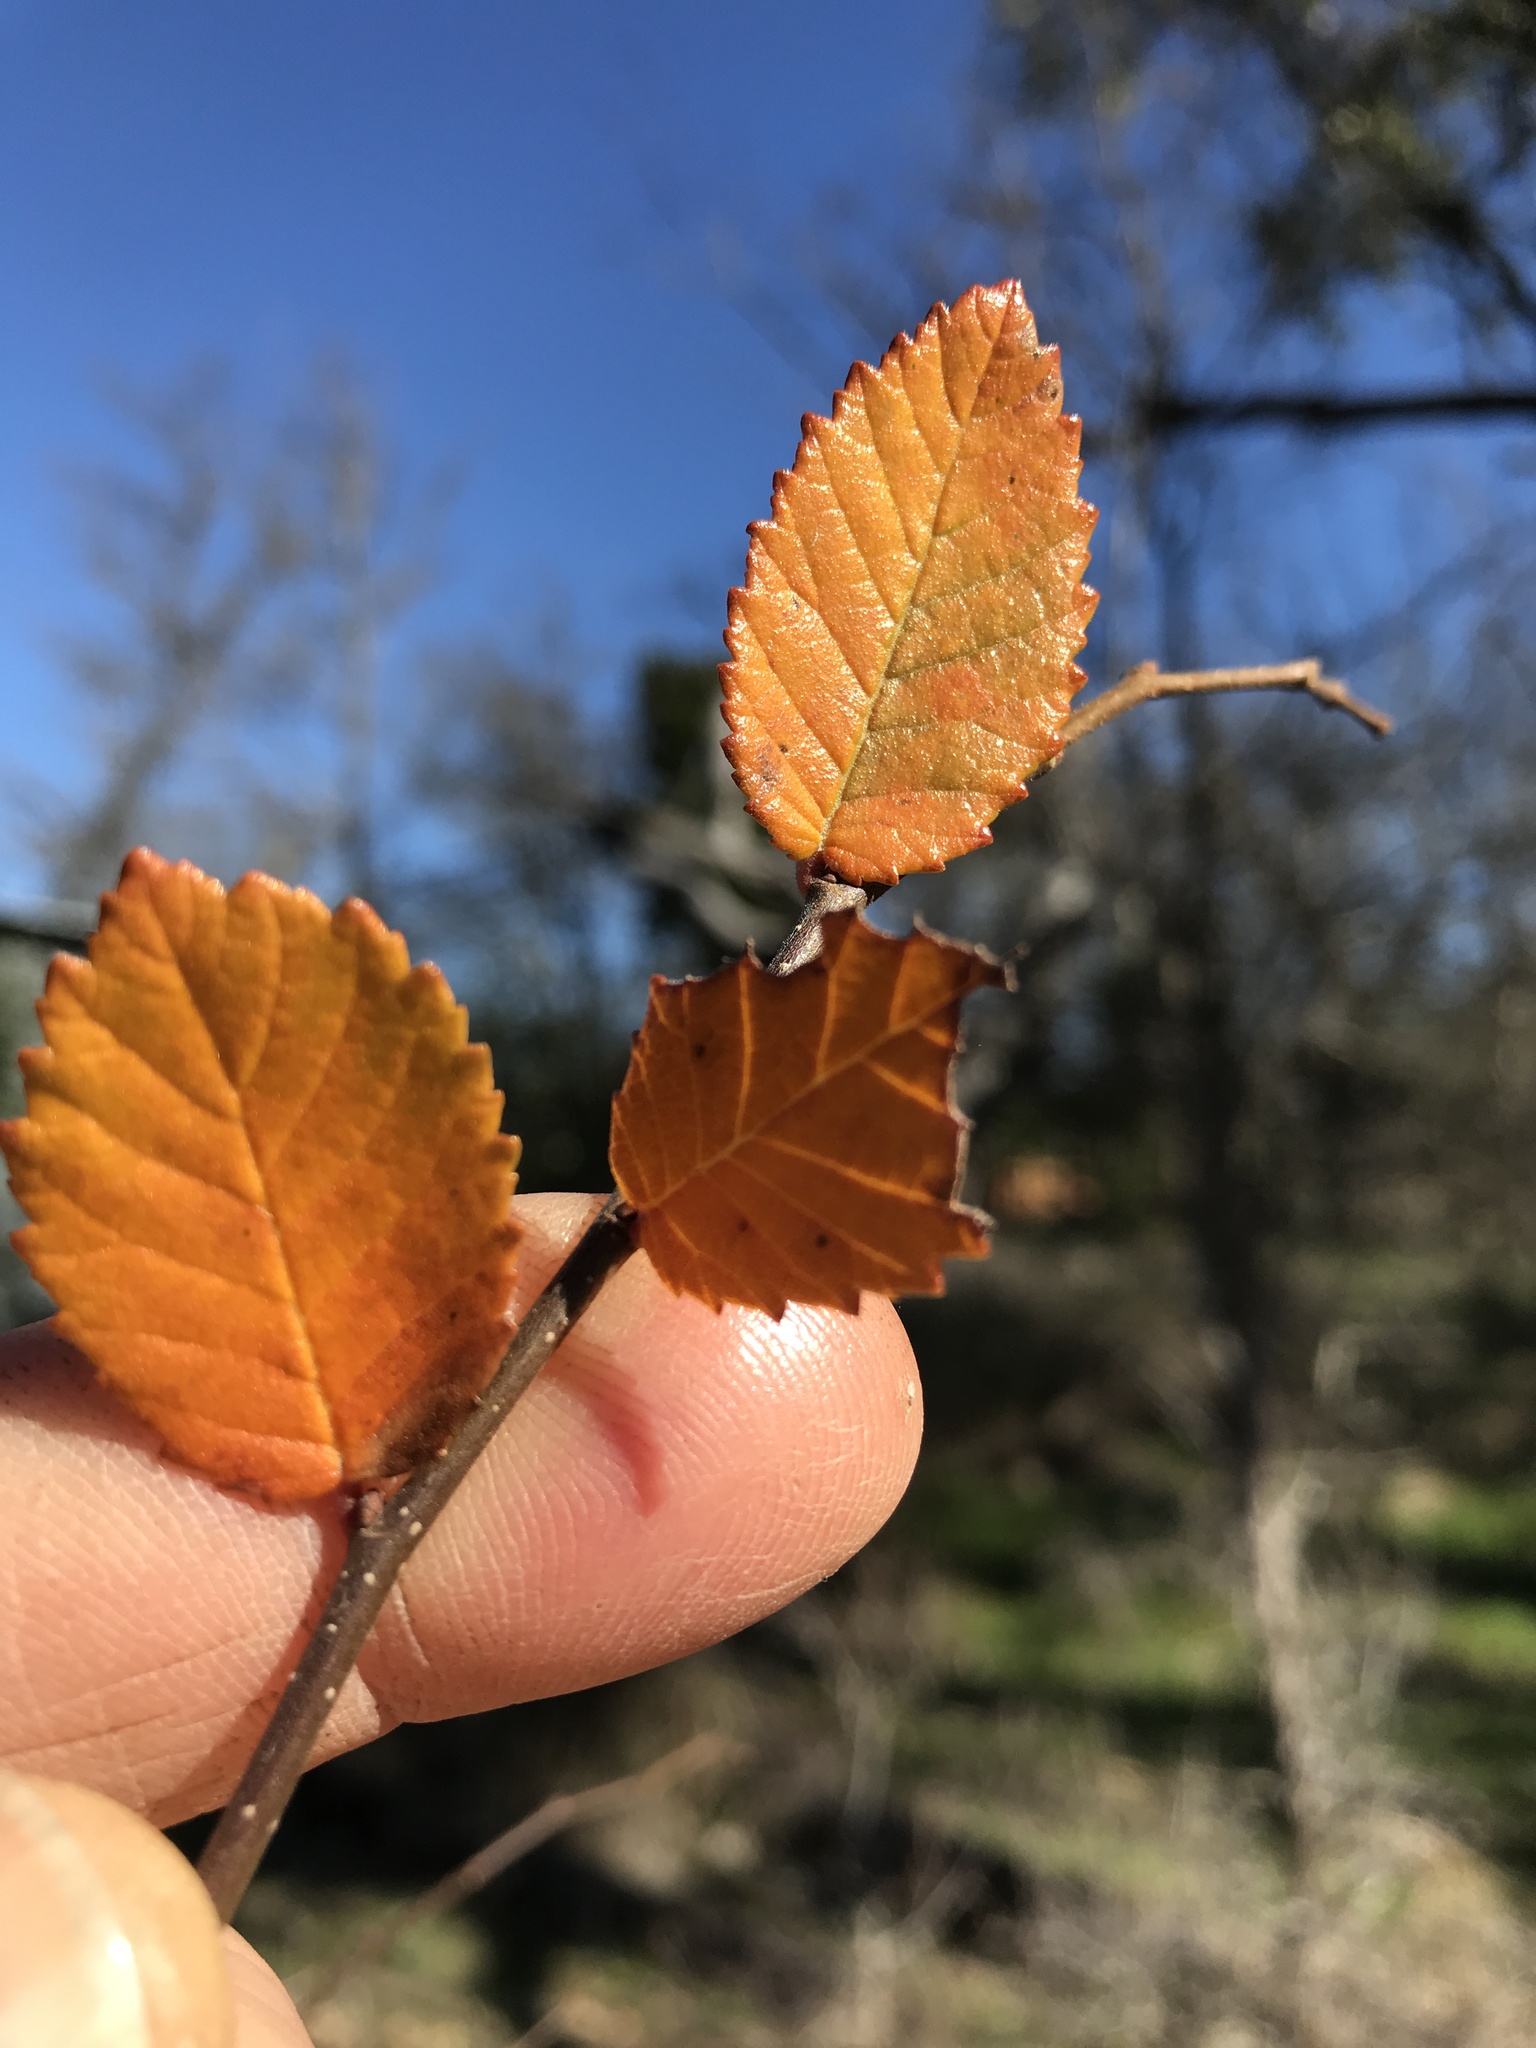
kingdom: Plantae
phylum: Tracheophyta
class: Magnoliopsida
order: Rosales
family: Ulmaceae
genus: Ulmus
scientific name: Ulmus crassifolia
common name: Basket elm
